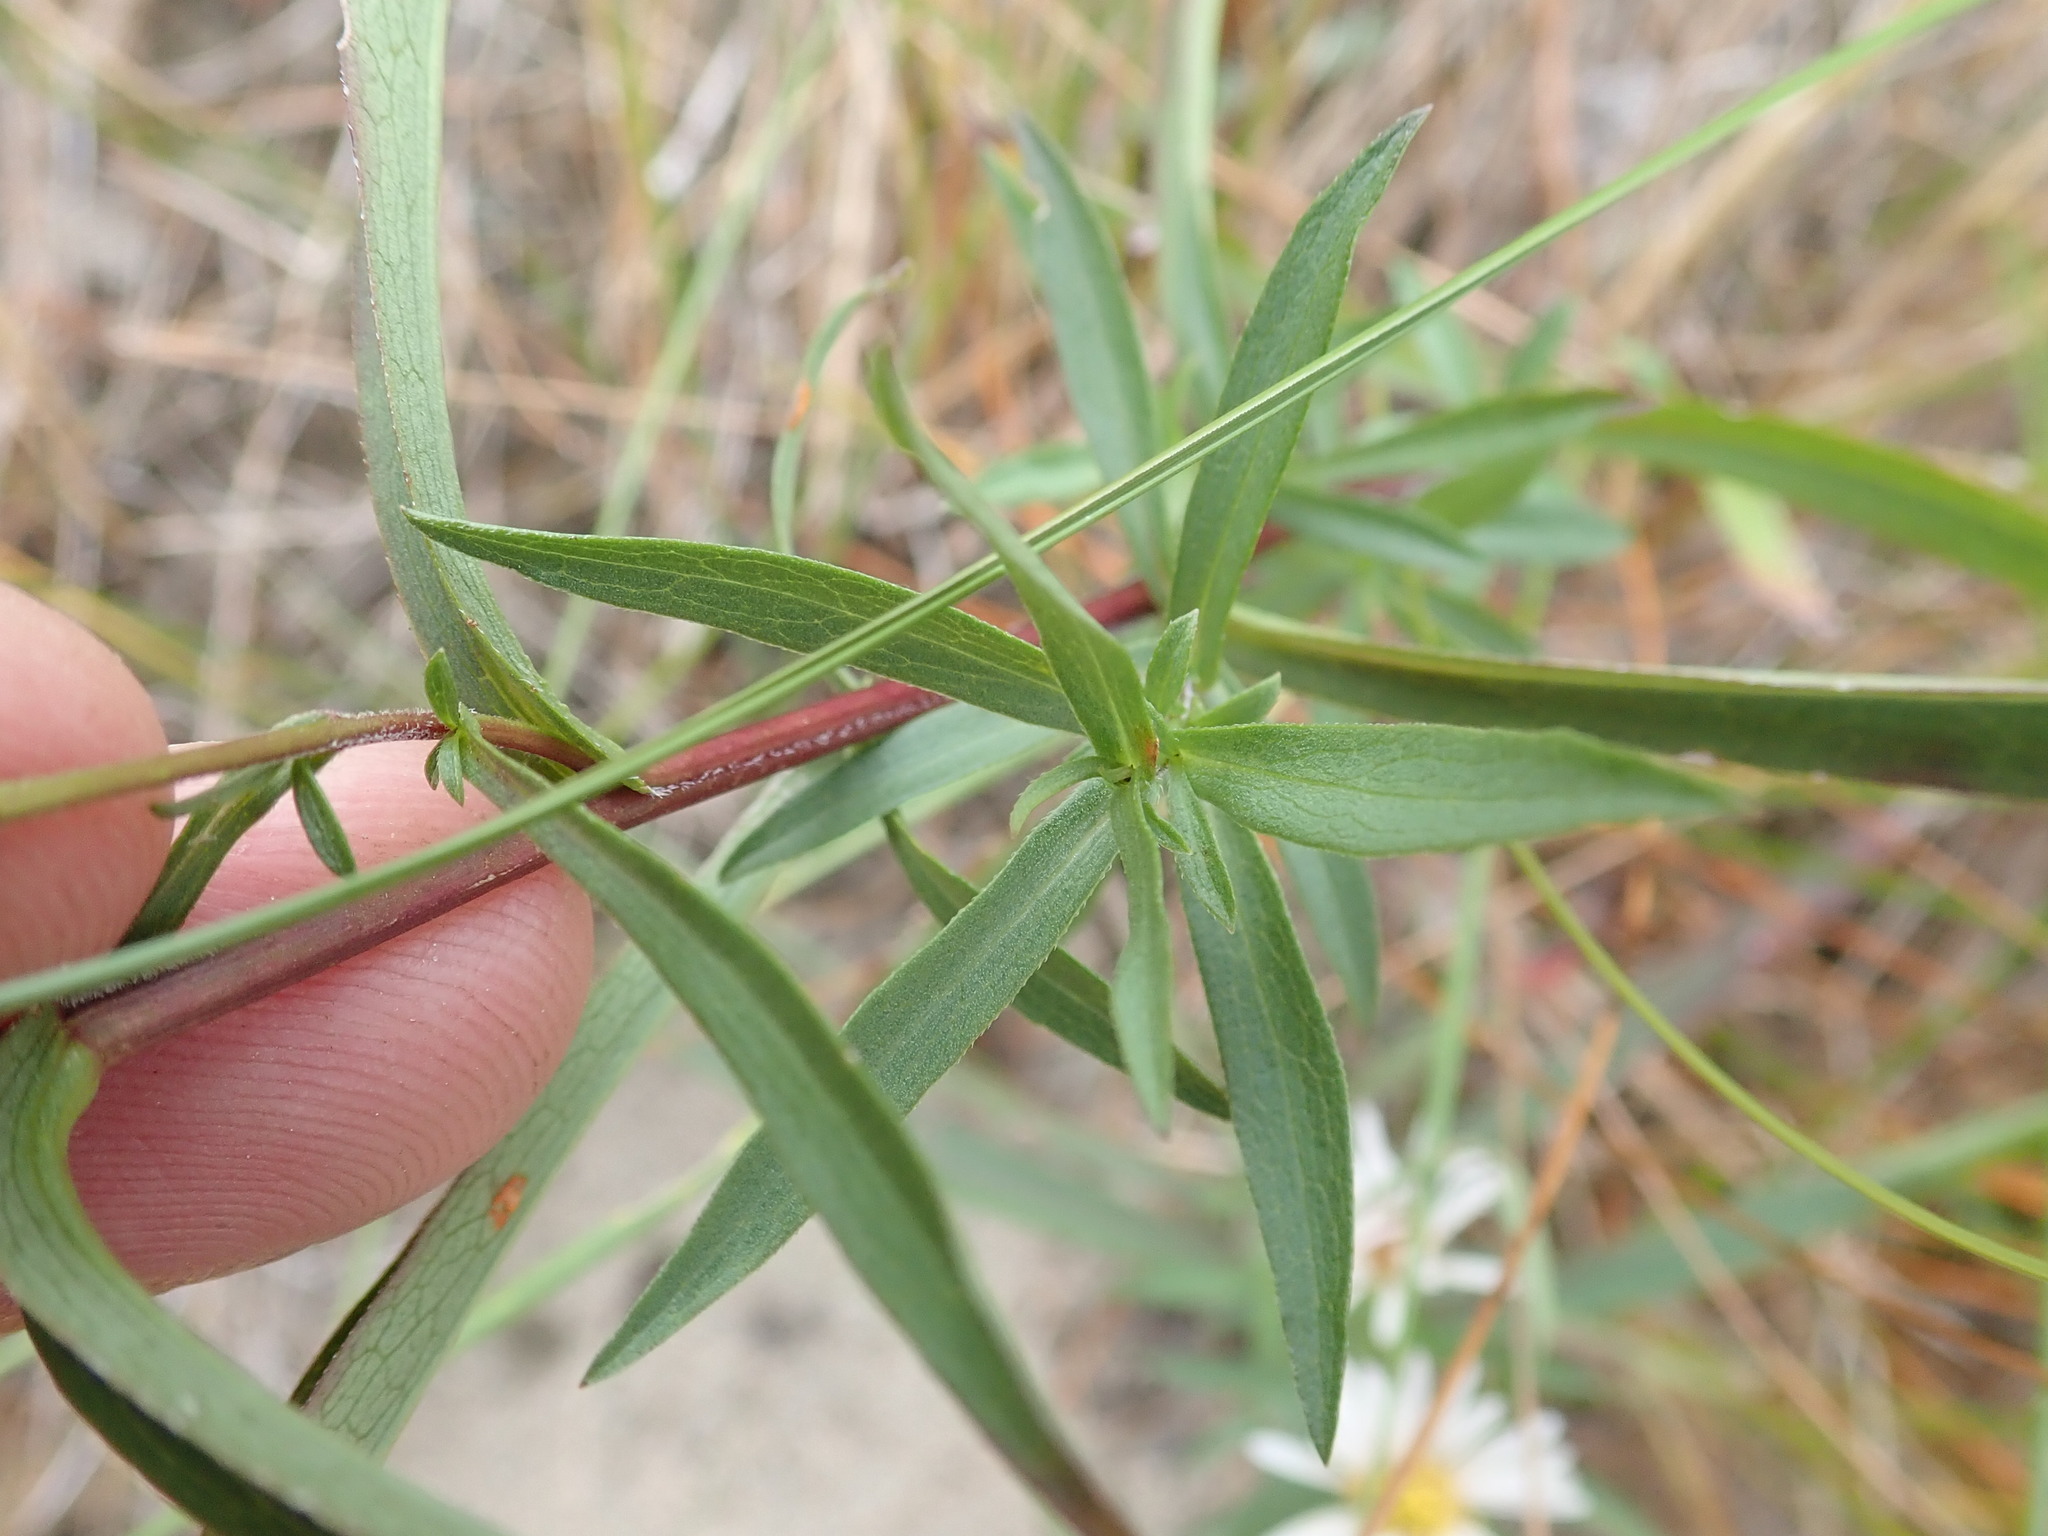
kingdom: Plantae
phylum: Tracheophyta
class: Magnoliopsida
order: Asterales
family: Asteraceae
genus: Symphyotrichum
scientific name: Symphyotrichum lanceolatum
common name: Panicled aster
